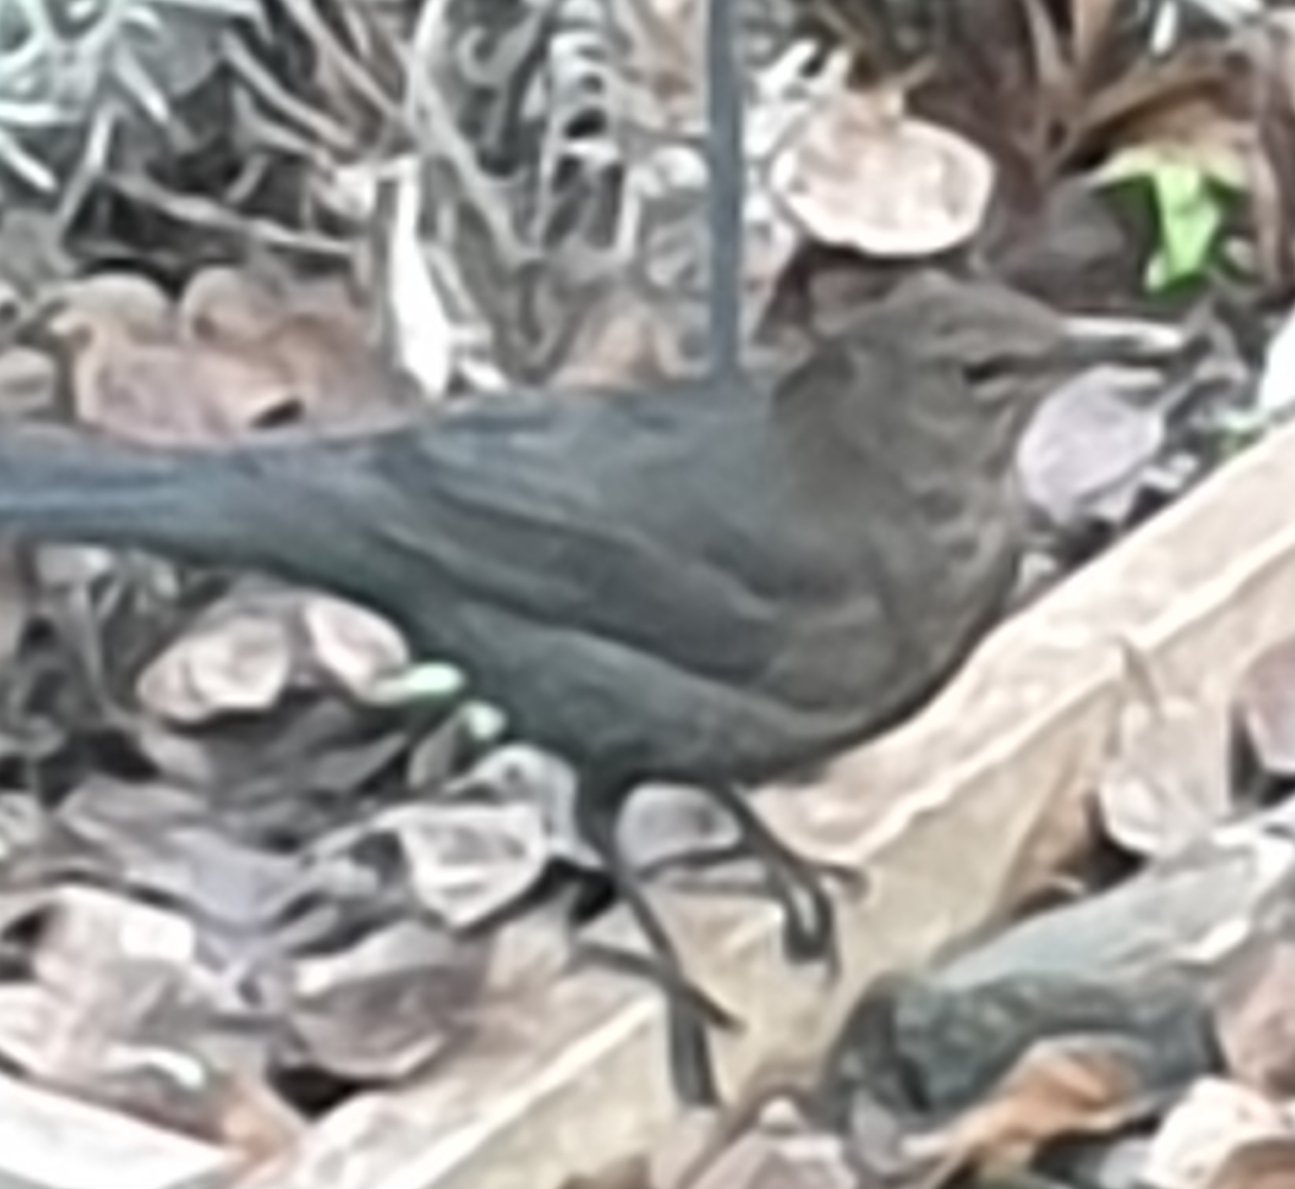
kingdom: Animalia
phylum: Chordata
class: Aves
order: Passeriformes
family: Turdidae
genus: Turdus
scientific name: Turdus merula
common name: Common blackbird
